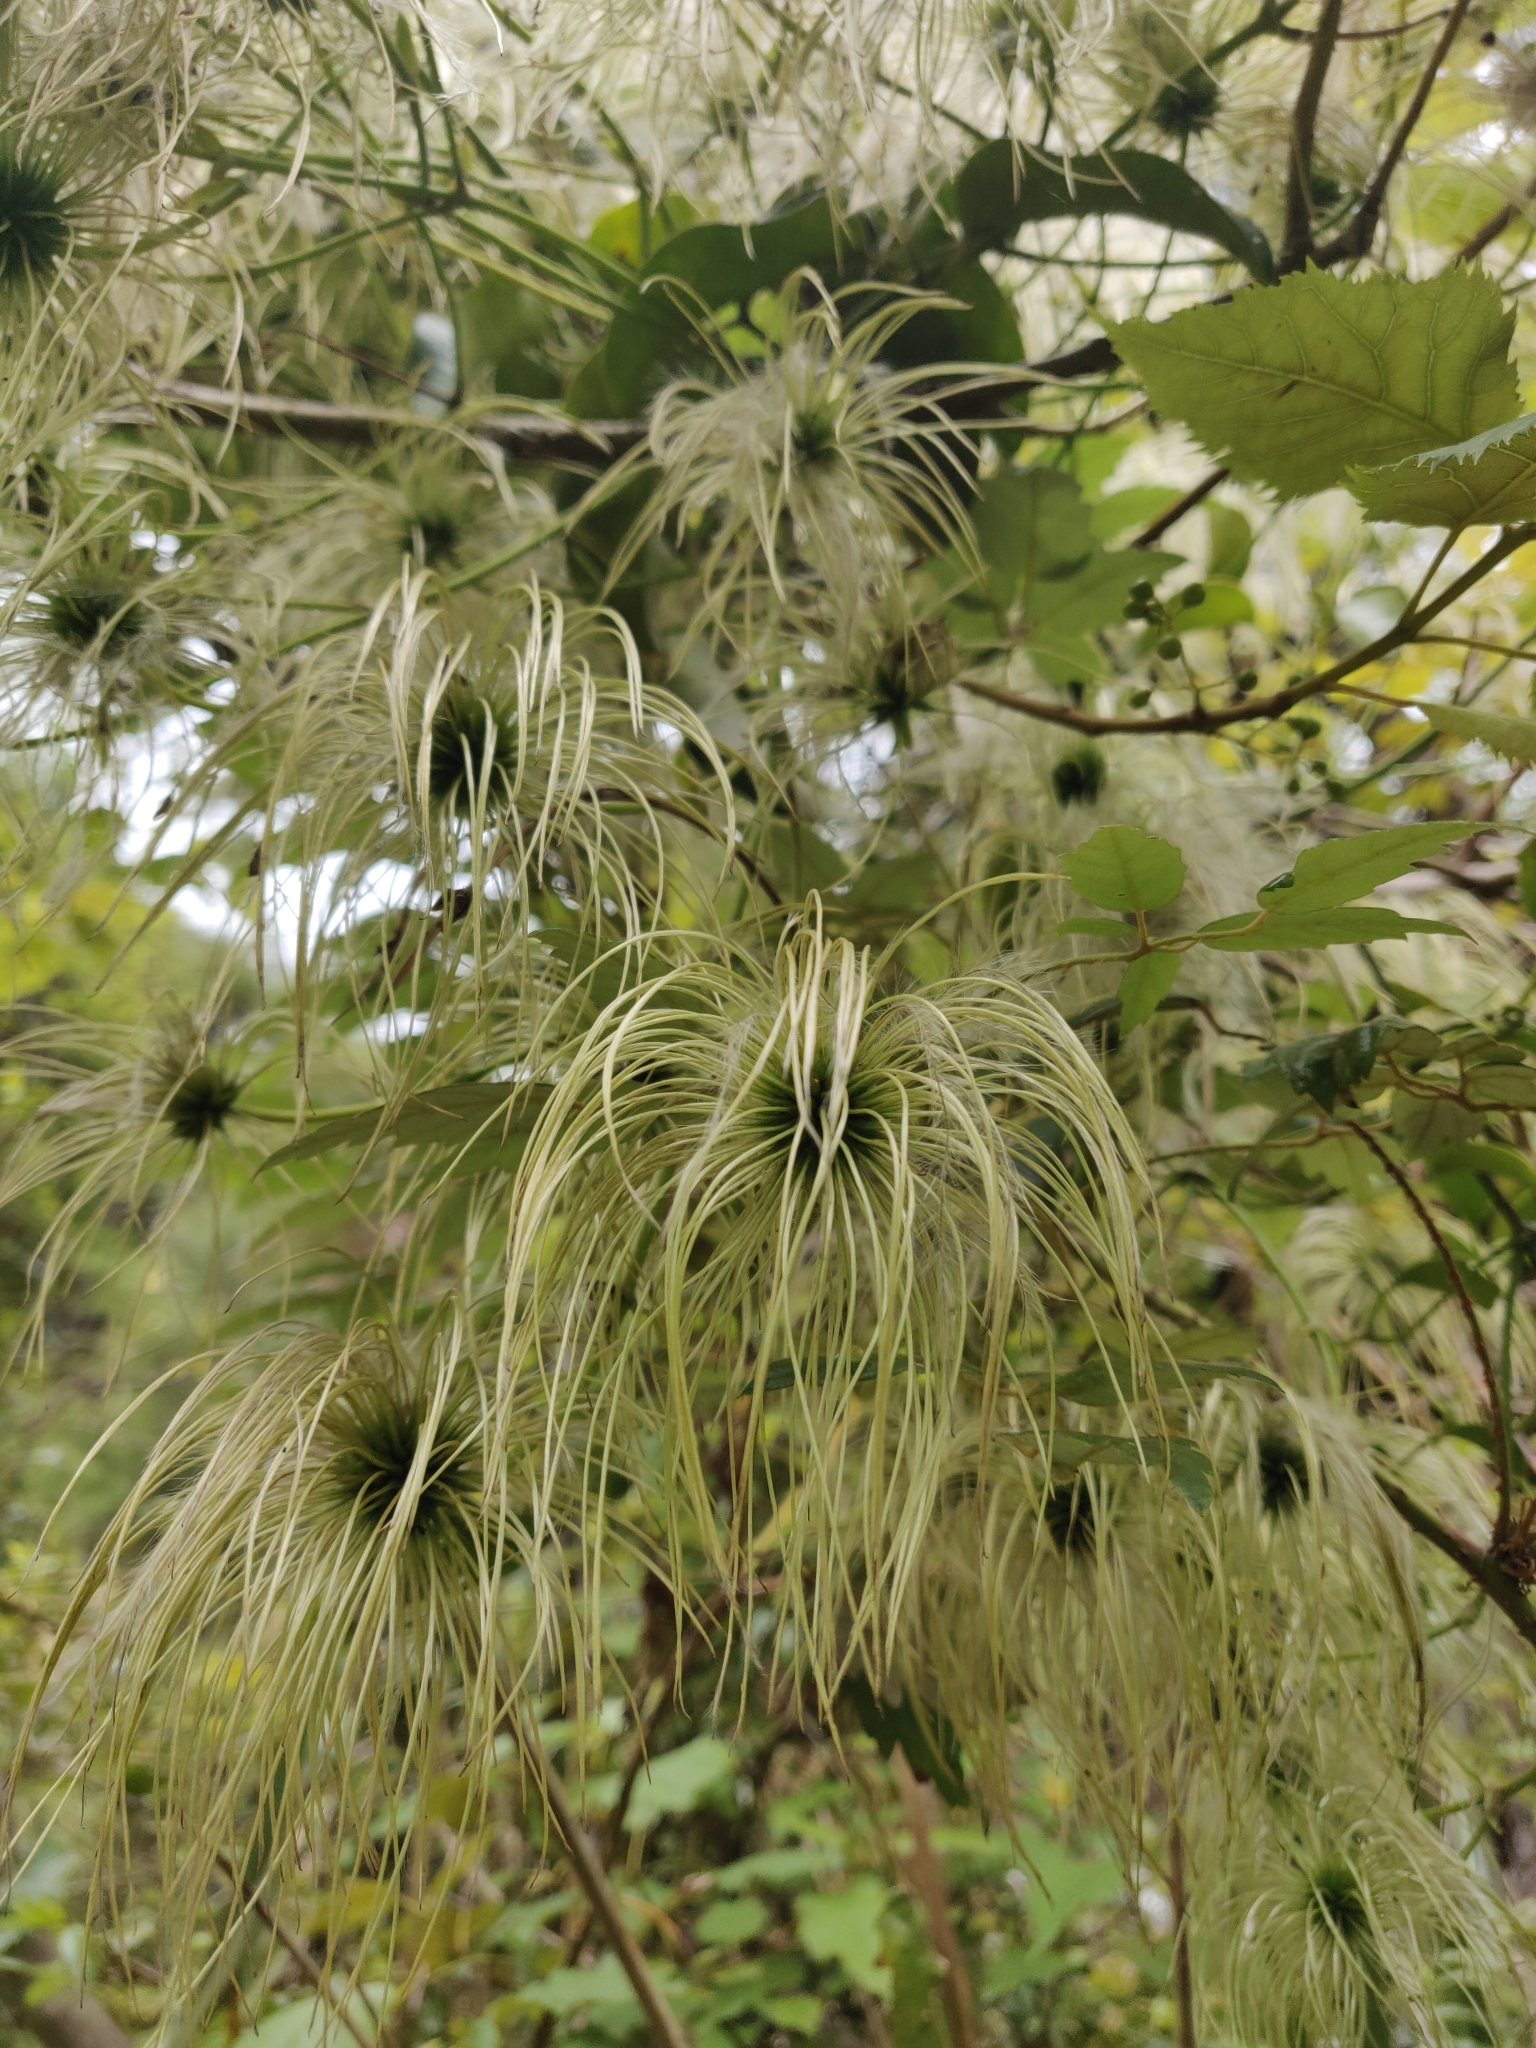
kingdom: Plantae
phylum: Tracheophyta
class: Magnoliopsida
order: Ranunculales
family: Ranunculaceae
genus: Clematis
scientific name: Clematis paniculata
